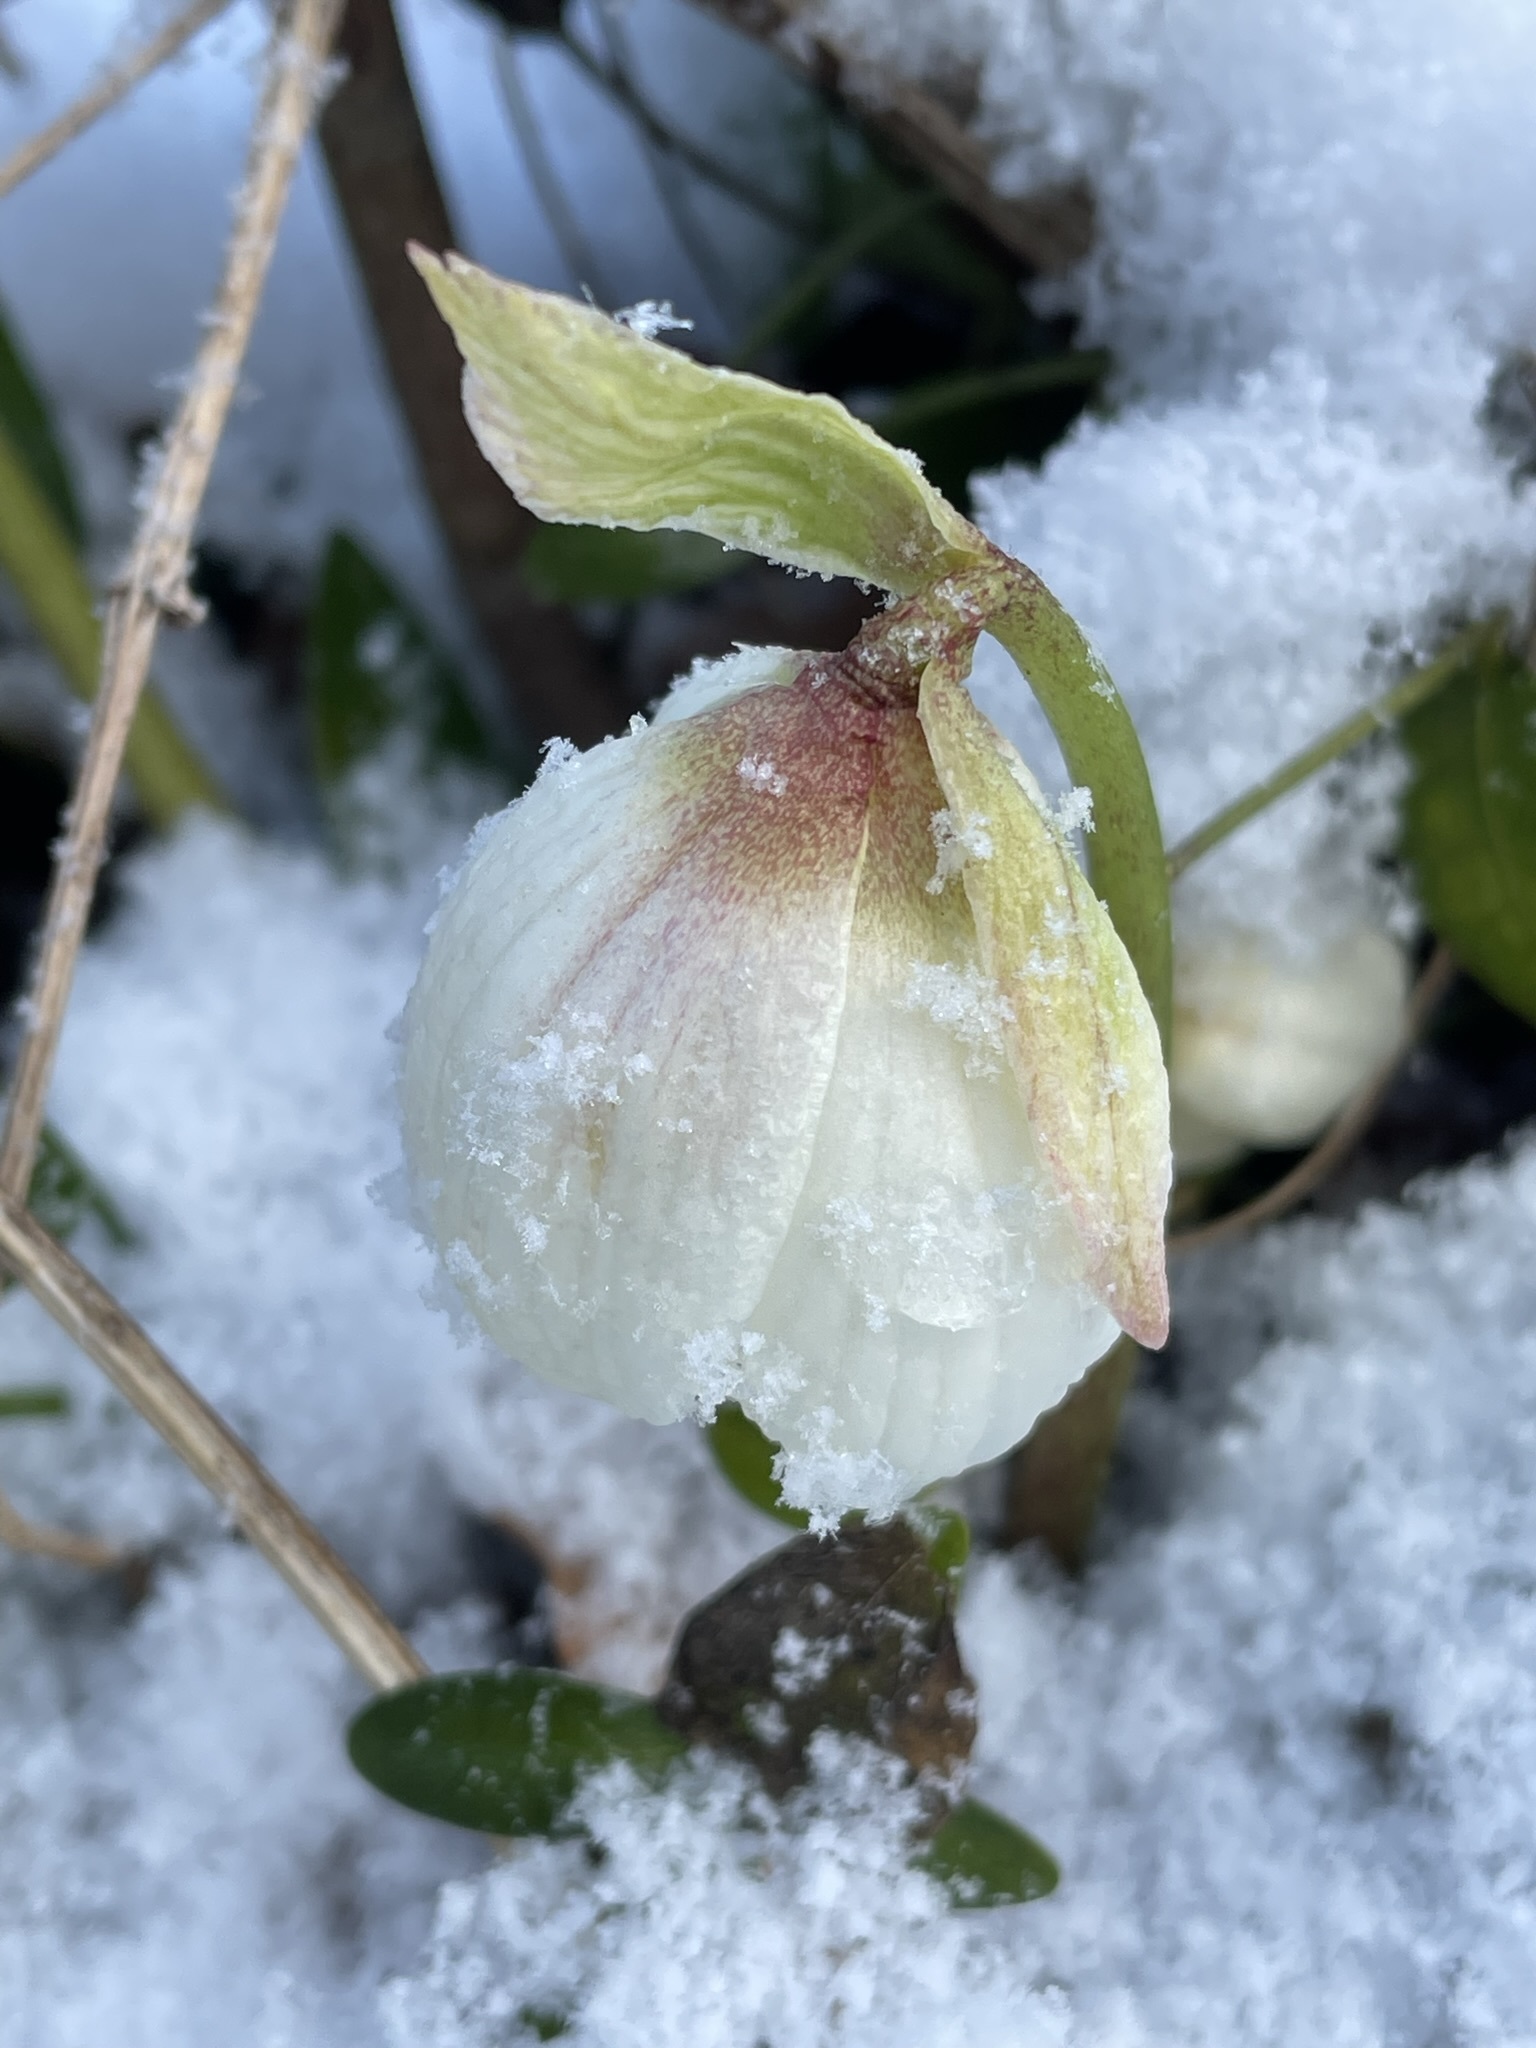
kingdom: Plantae
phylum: Tracheophyta
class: Magnoliopsida
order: Ranunculales
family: Ranunculaceae
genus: Helleborus
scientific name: Helleborus niger
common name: Black hellebore
